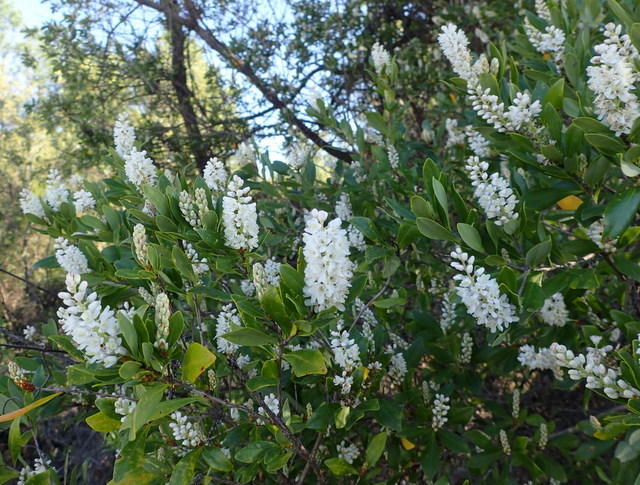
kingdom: Plantae
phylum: Tracheophyta
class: Magnoliopsida
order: Ericales
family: Cyrillaceae
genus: Cliftonia
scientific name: Cliftonia monophylla
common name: Titi
